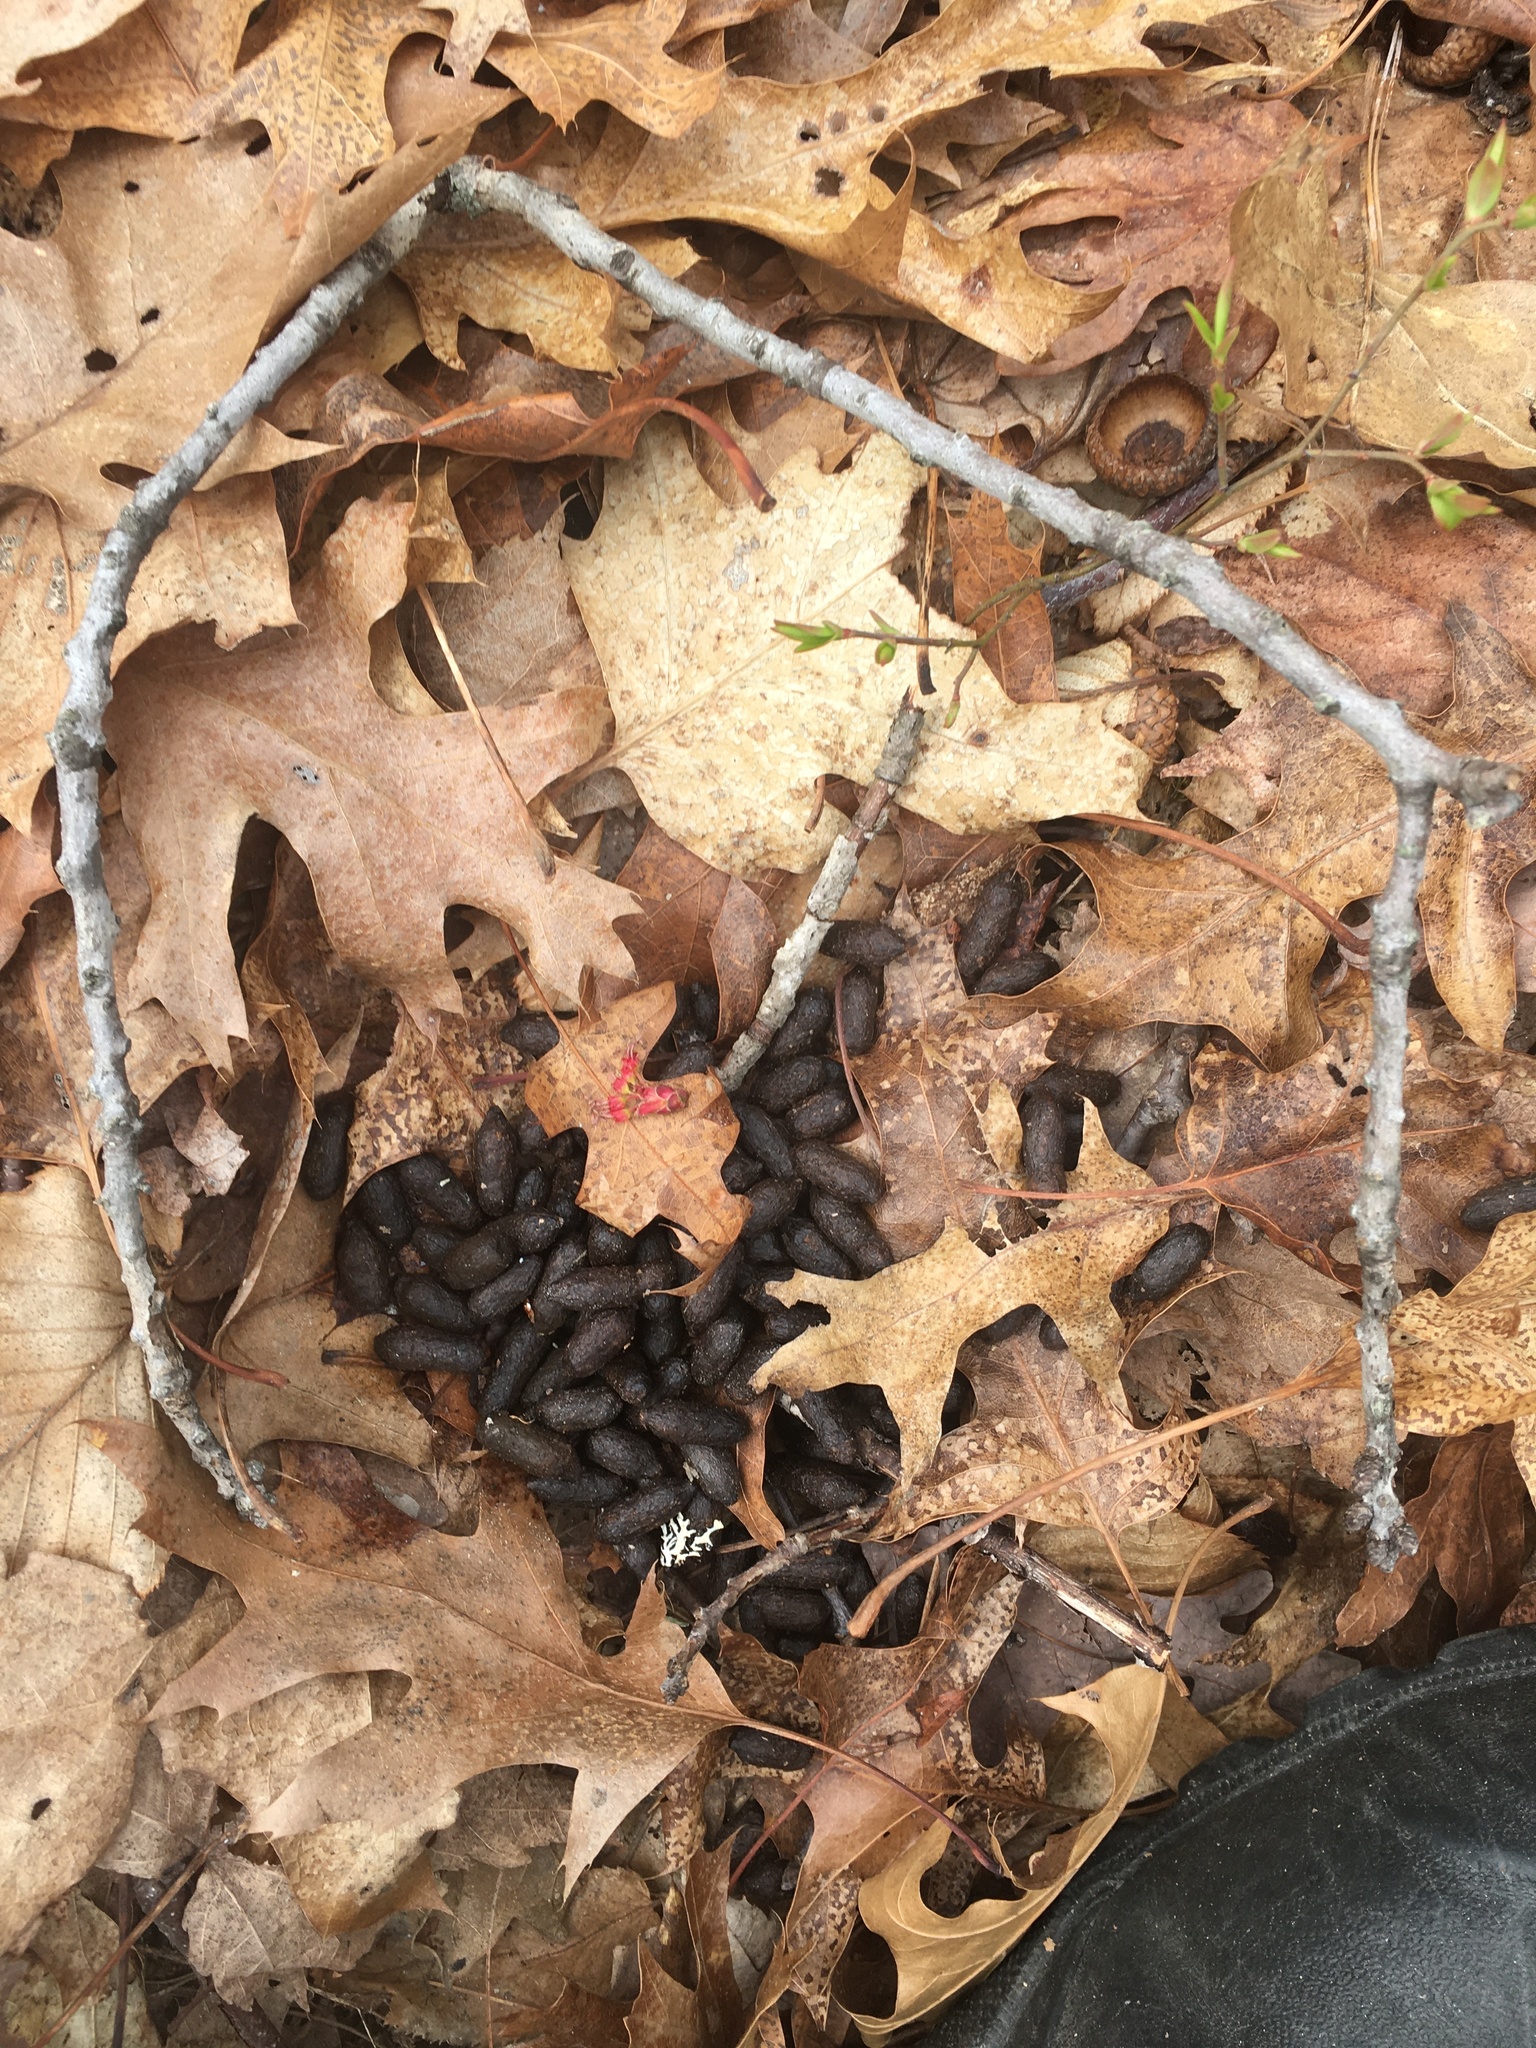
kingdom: Animalia
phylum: Chordata
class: Mammalia
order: Artiodactyla
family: Cervidae
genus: Odocoileus
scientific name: Odocoileus virginianus
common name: White-tailed deer
